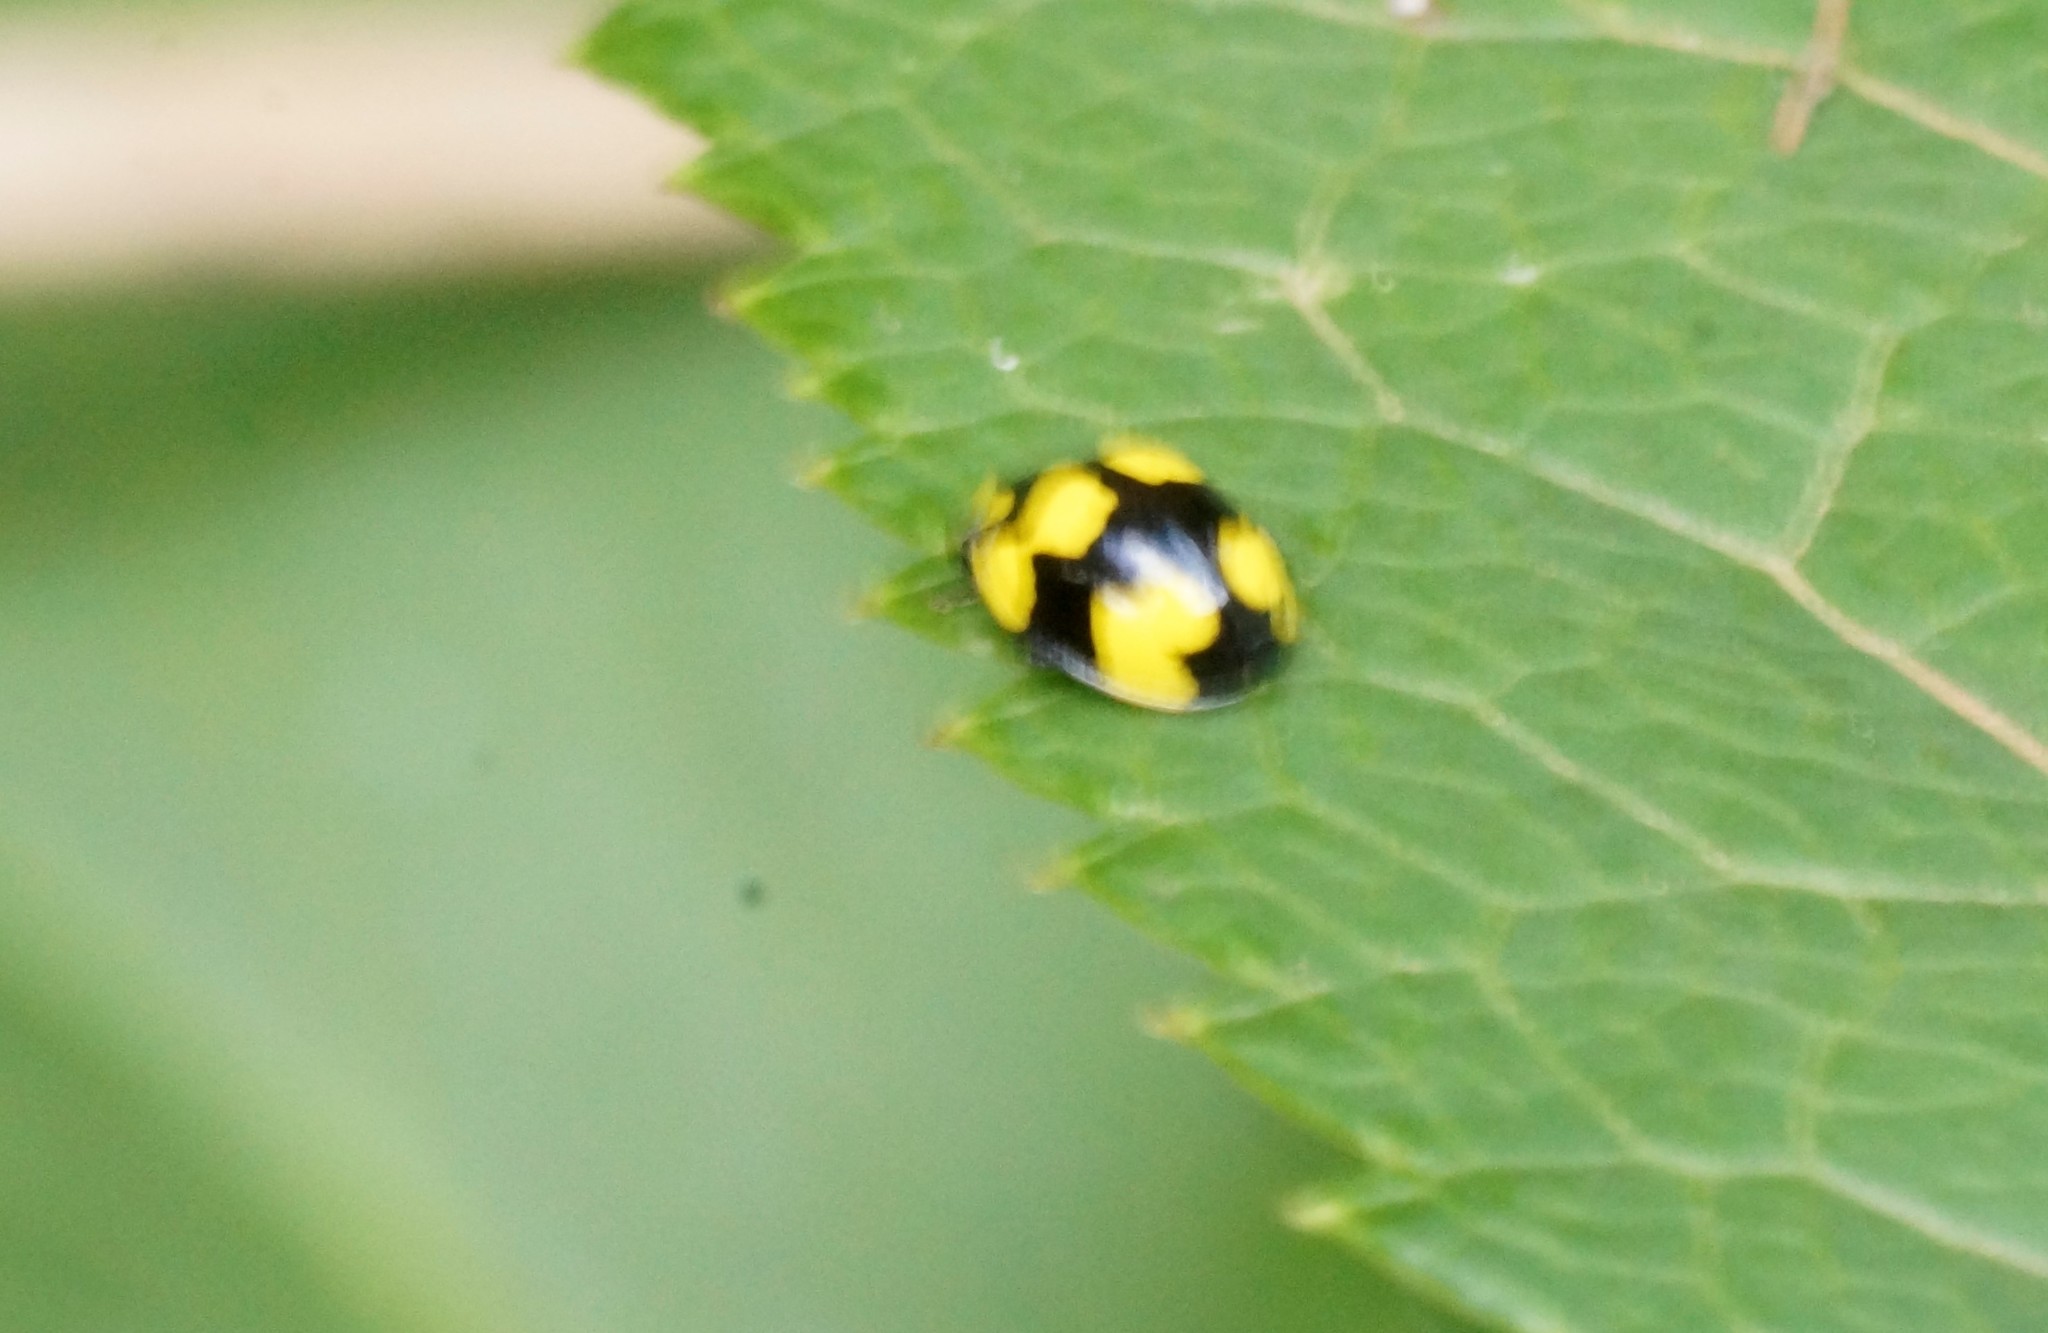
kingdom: Animalia
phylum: Arthropoda
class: Insecta
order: Coleoptera
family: Coccinellidae
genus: Illeis
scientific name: Illeis galbula
